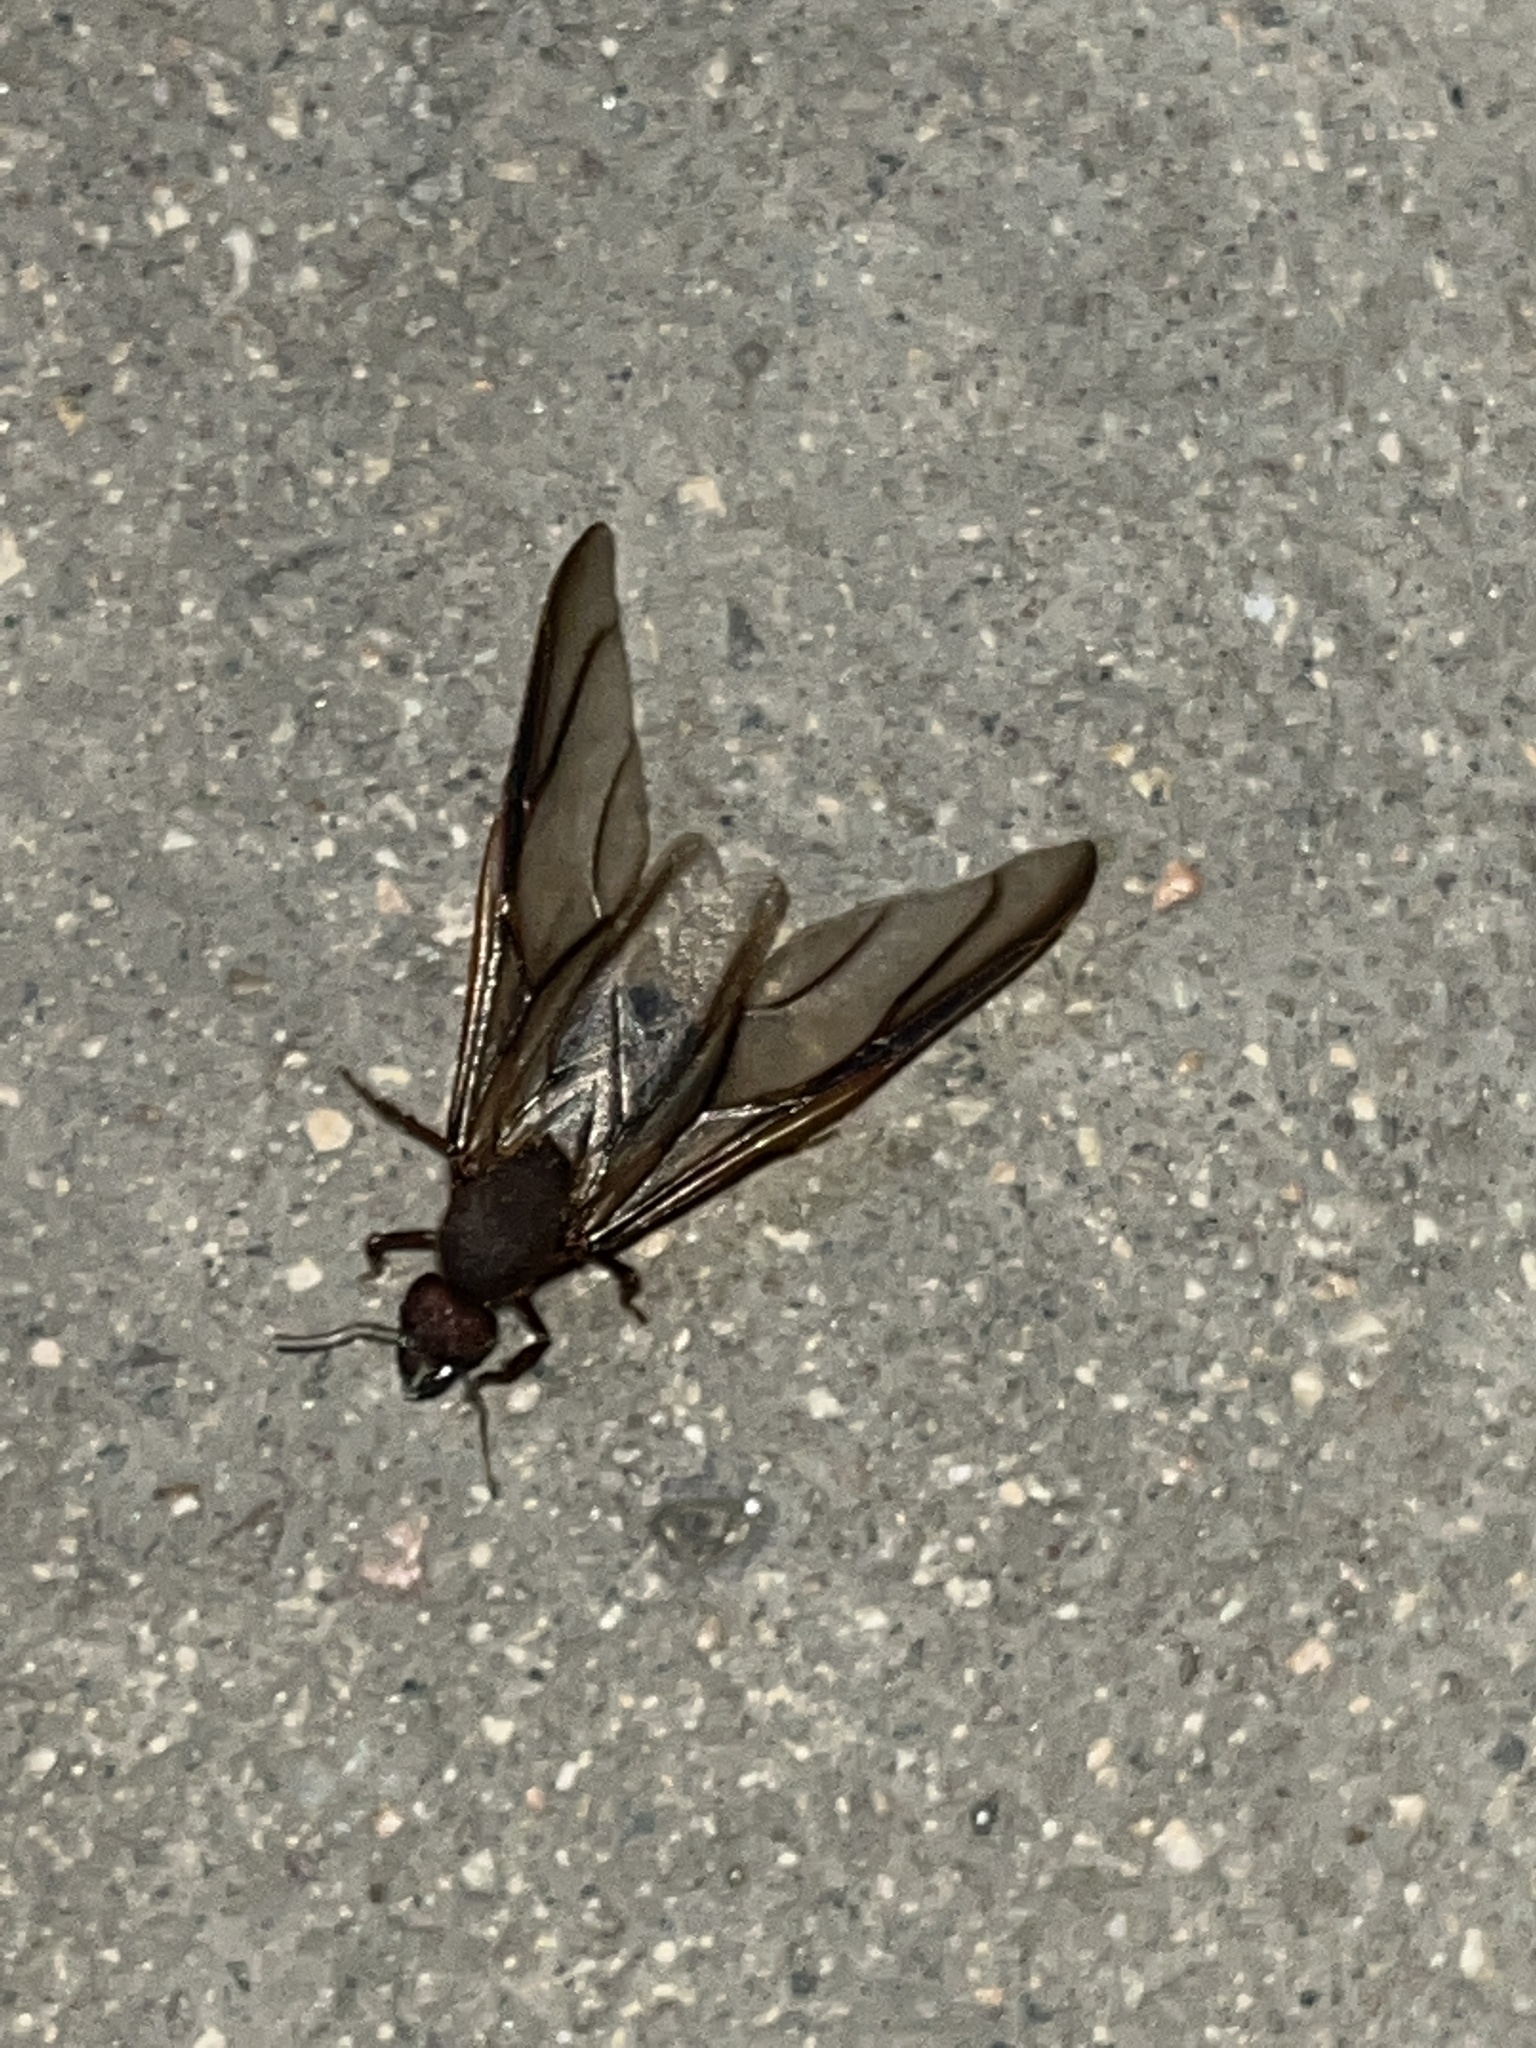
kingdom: Animalia
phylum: Arthropoda
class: Insecta
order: Hymenoptera
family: Formicidae
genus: Atta
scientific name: Atta mexicana
